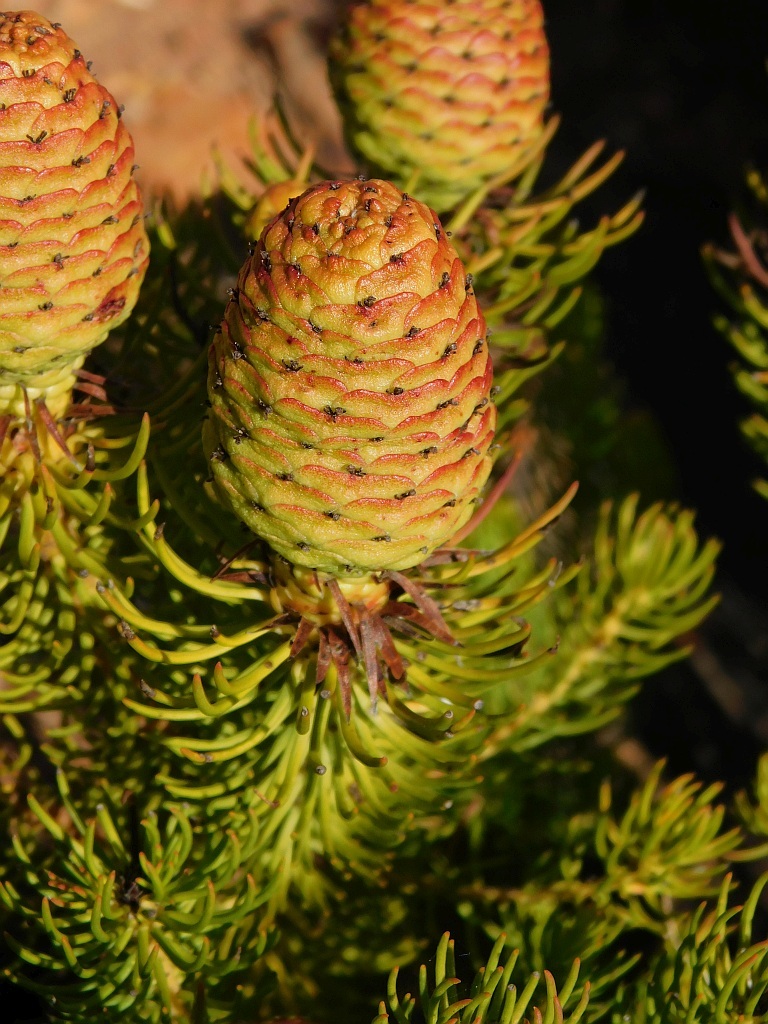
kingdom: Plantae
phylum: Tracheophyta
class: Magnoliopsida
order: Proteales
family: Proteaceae
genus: Leucadendron
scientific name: Leucadendron teretifolium
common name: Needle-leaf conebush
